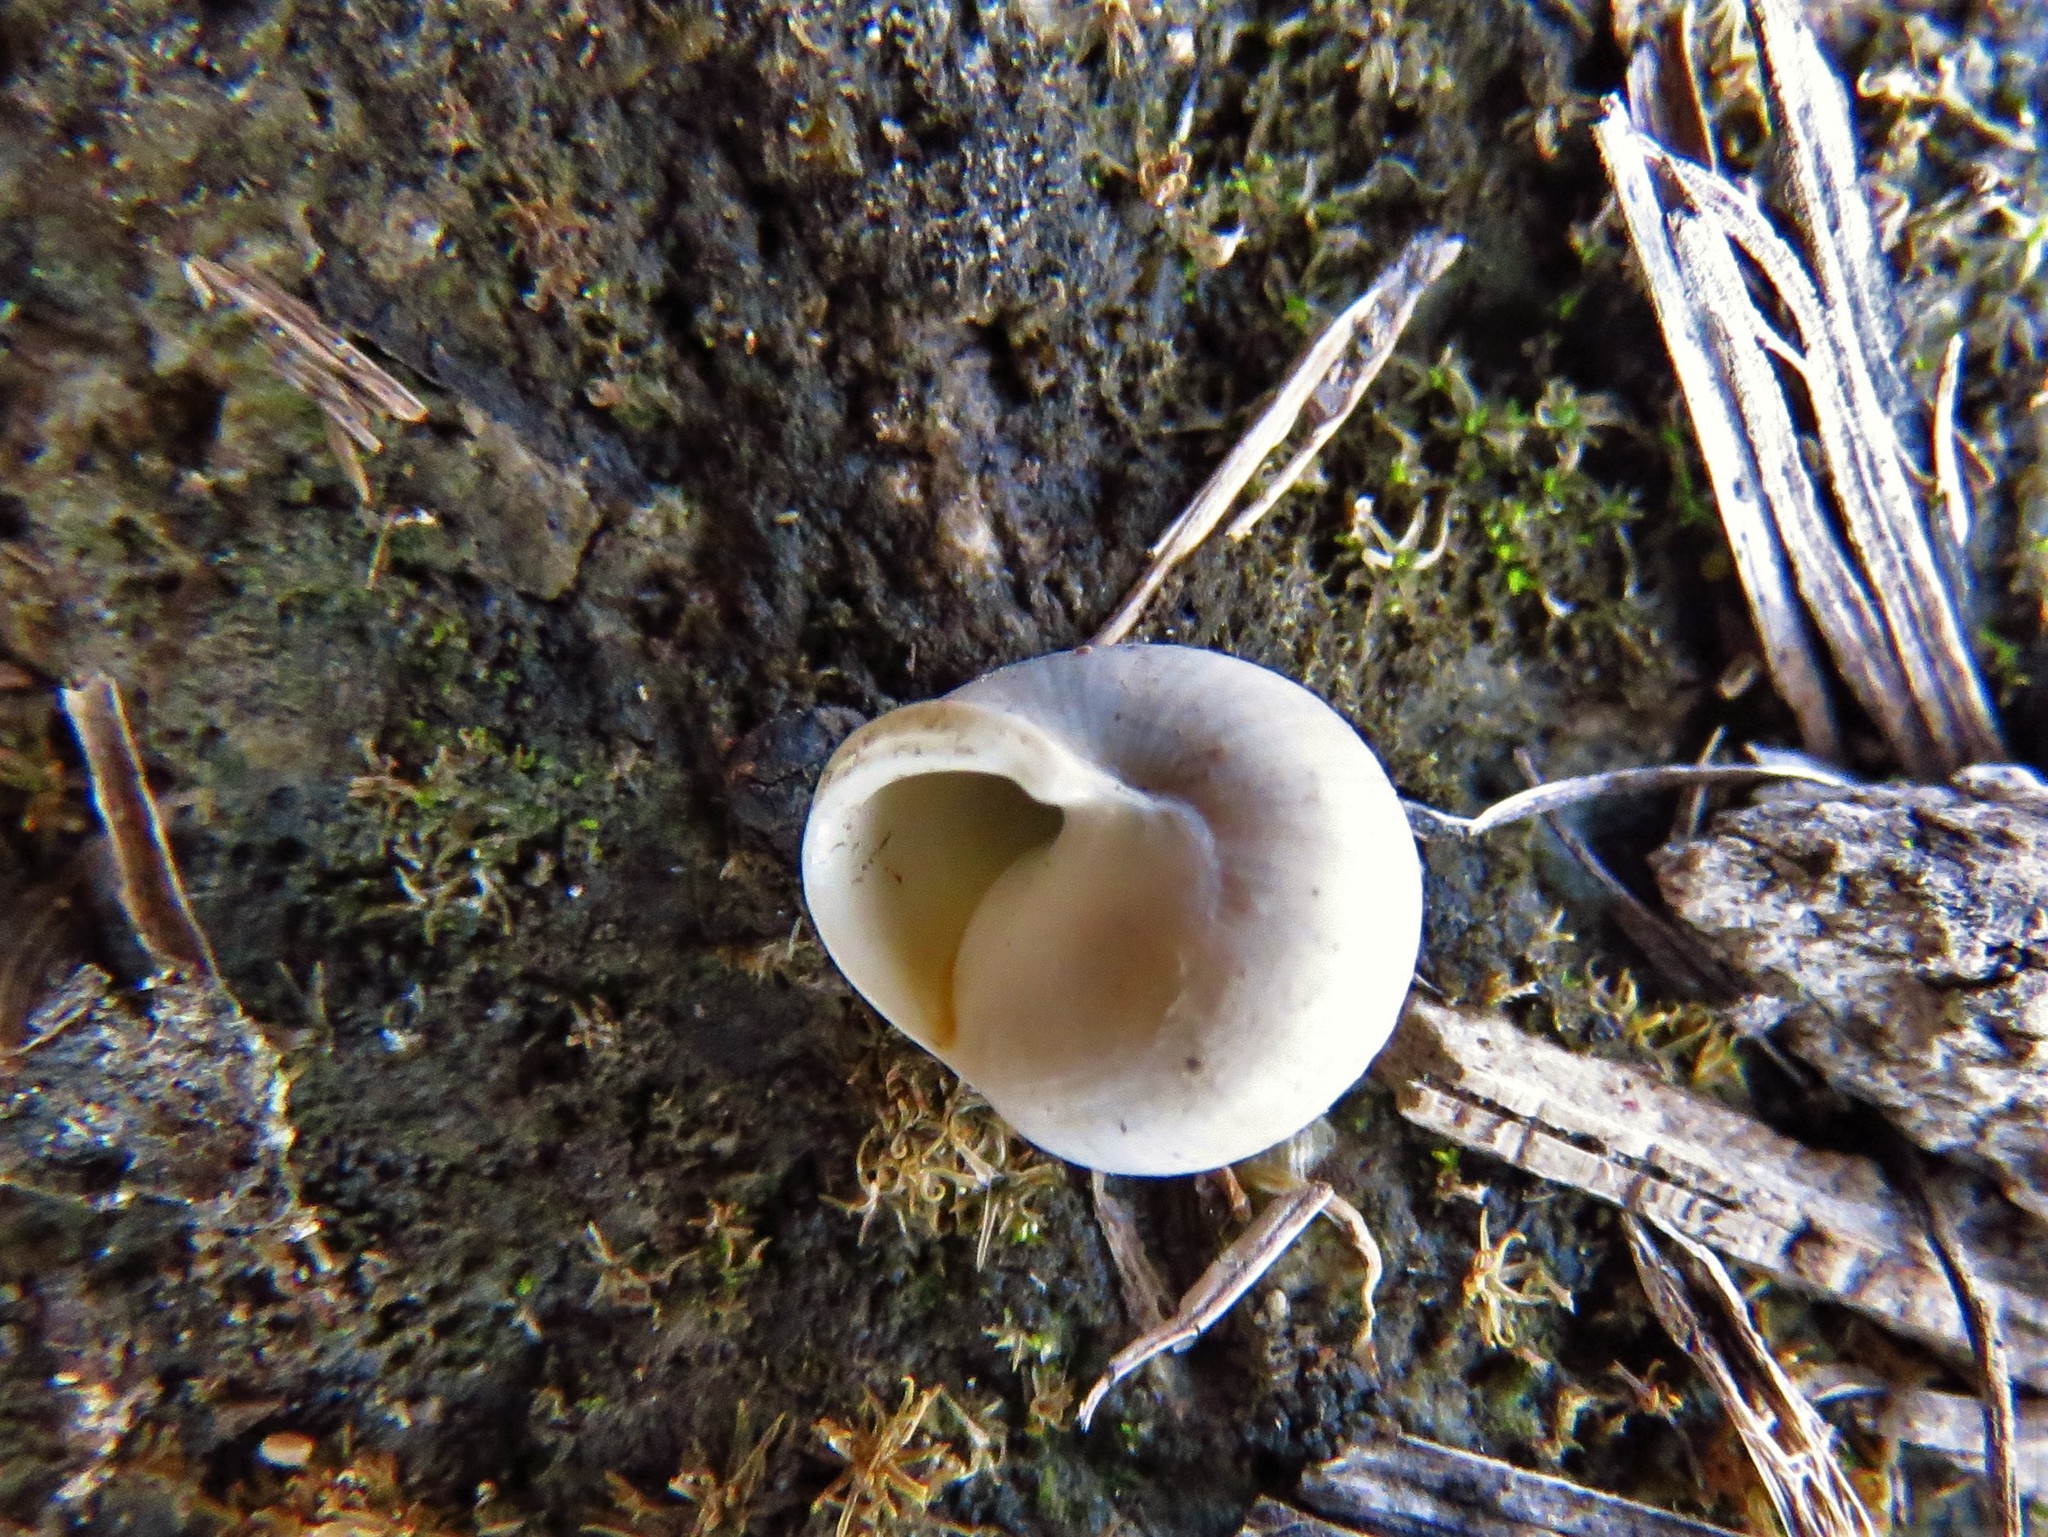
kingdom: Animalia
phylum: Mollusca
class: Gastropoda
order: Cycloneritida
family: Helicinidae
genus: Helicina
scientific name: Helicina orbiculata
